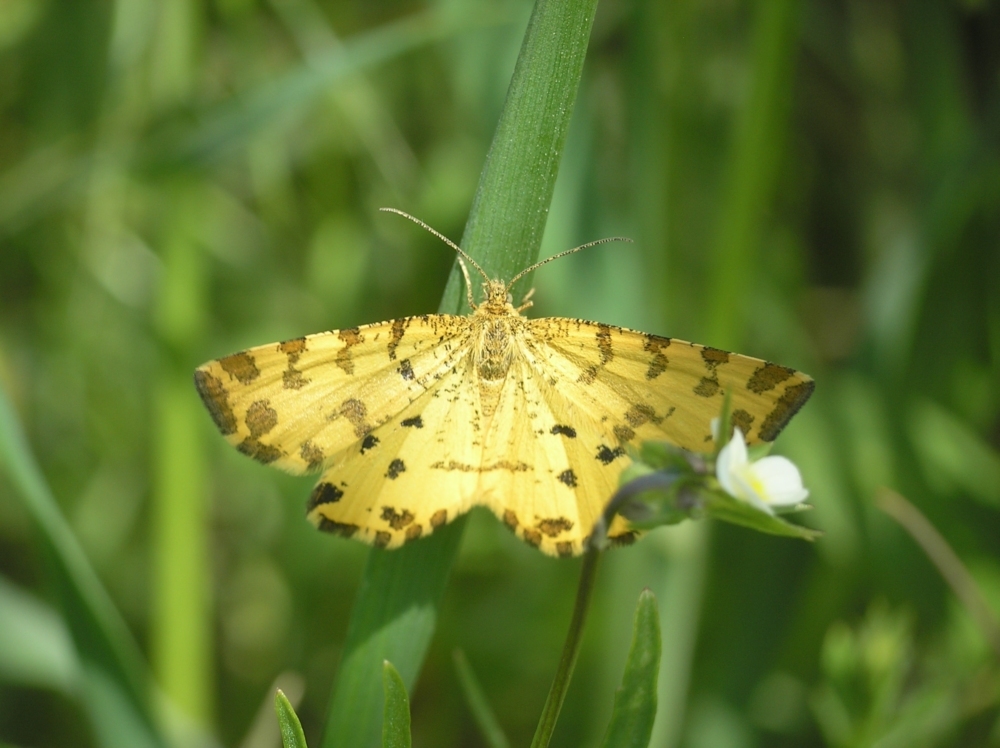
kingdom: Animalia
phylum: Arthropoda
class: Insecta
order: Lepidoptera
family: Geometridae
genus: Pseudopanthera
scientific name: Pseudopanthera macularia
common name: Speckled yellow
